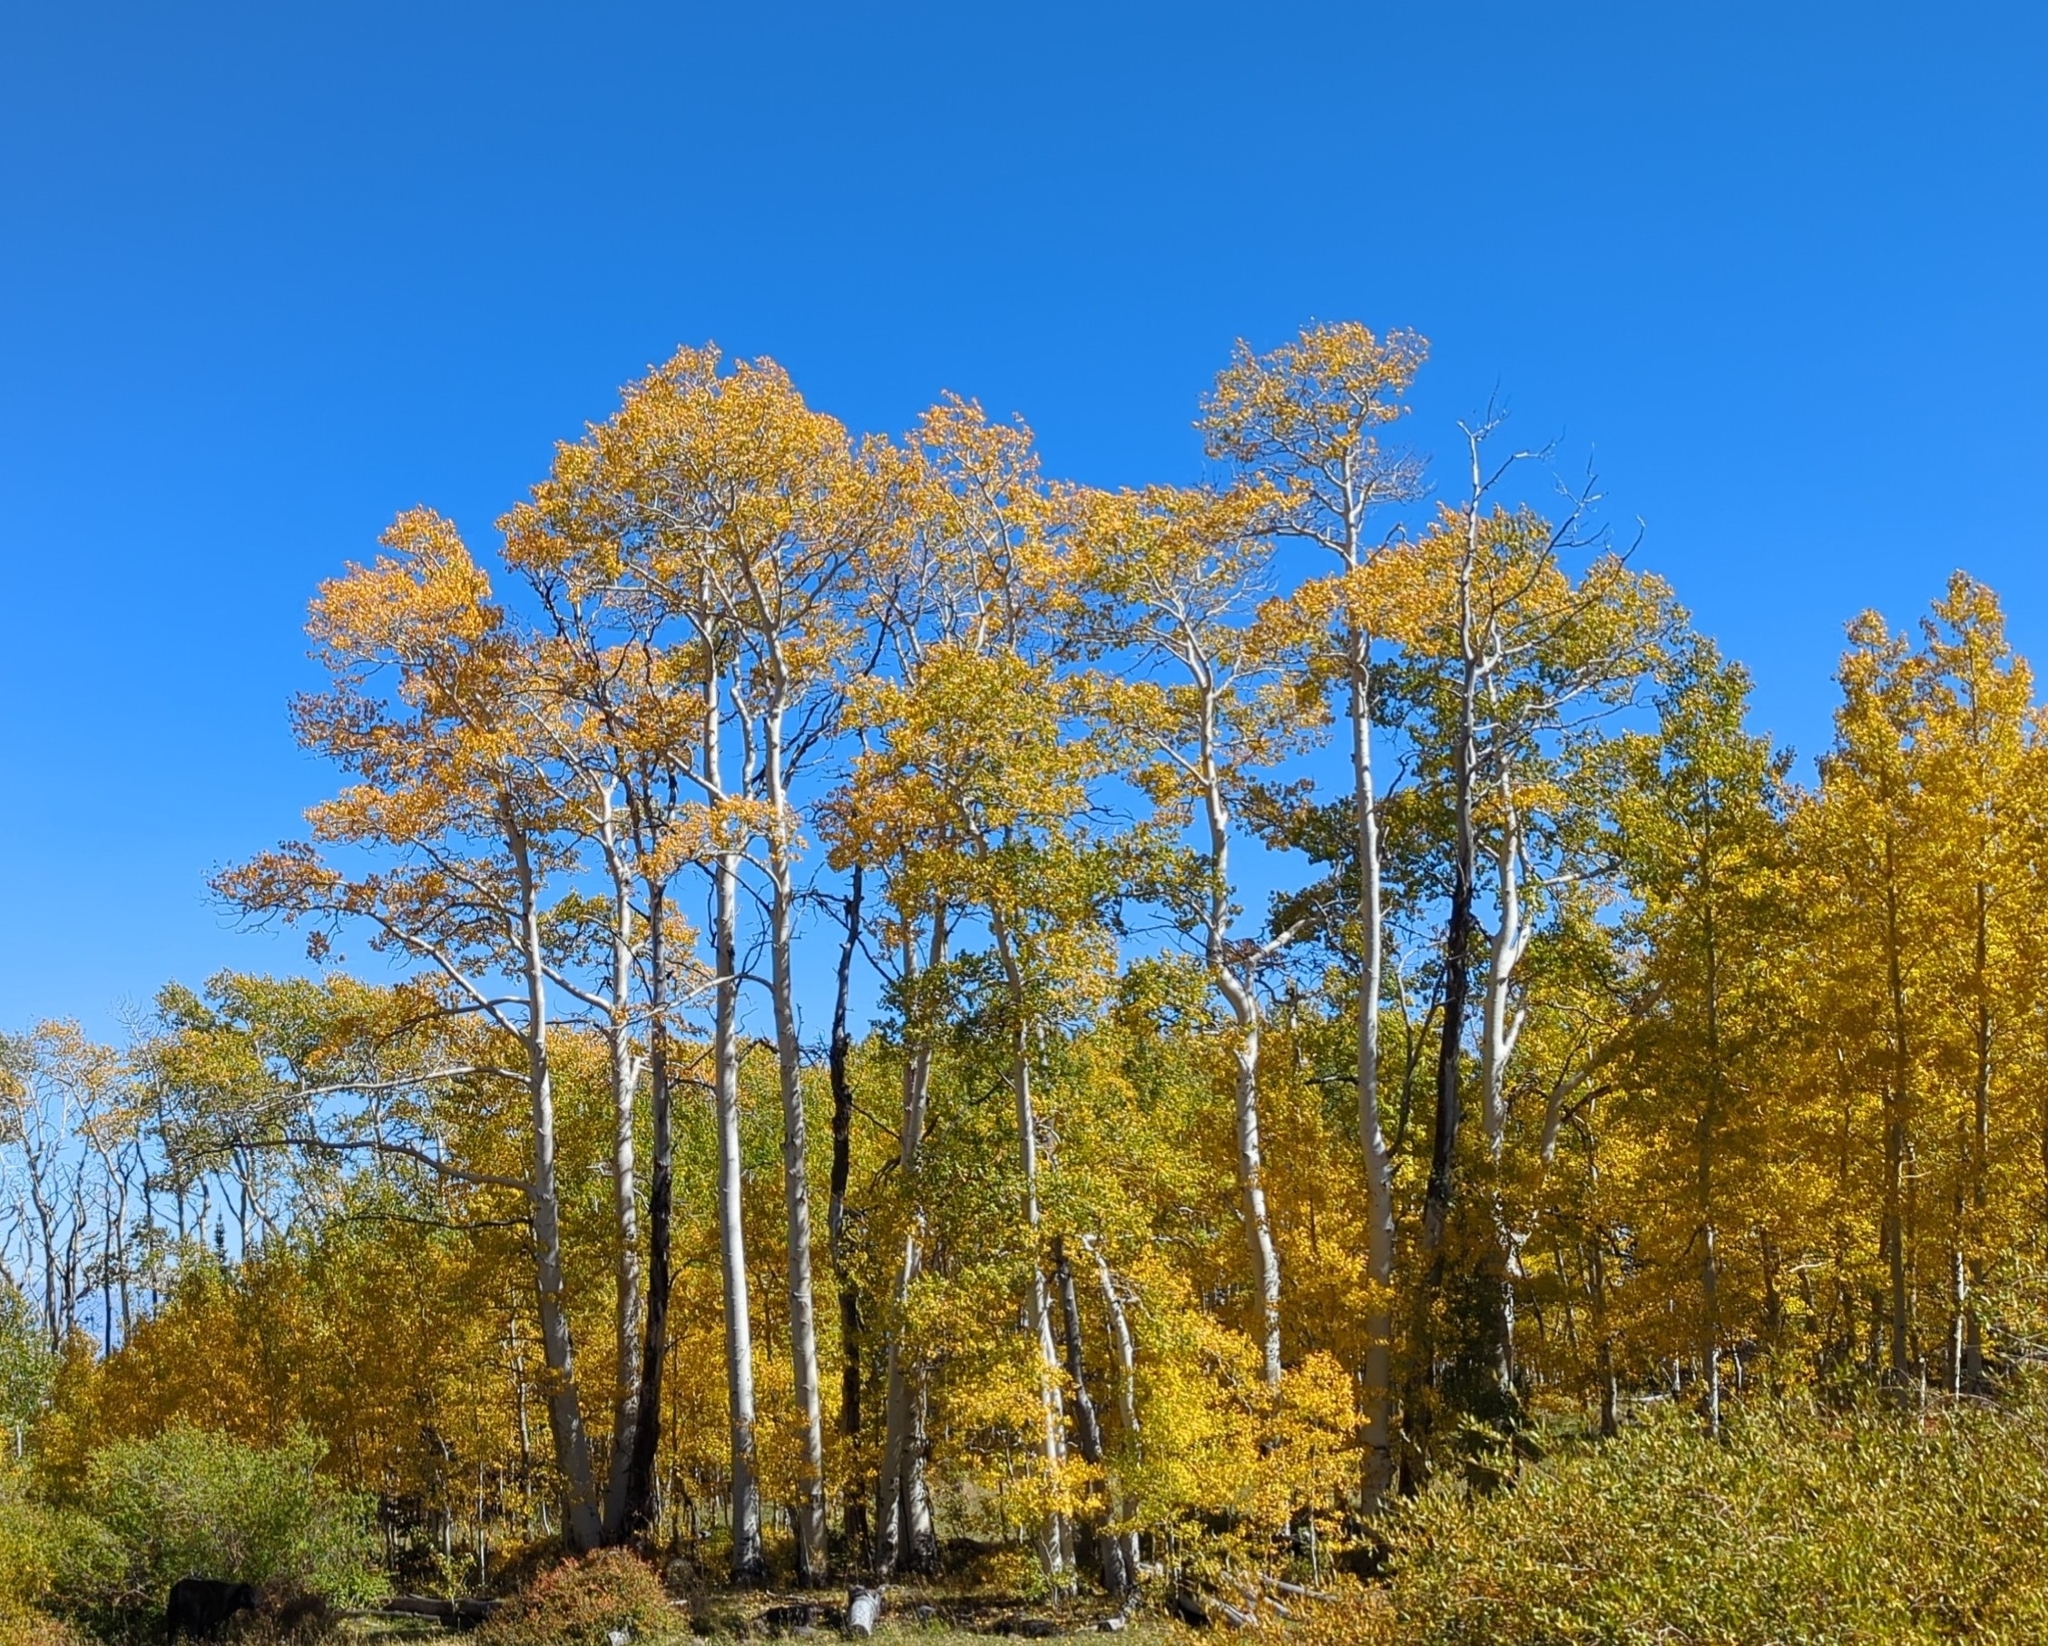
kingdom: Plantae
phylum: Tracheophyta
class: Magnoliopsida
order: Malpighiales
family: Salicaceae
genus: Populus
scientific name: Populus tremuloides
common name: Quaking aspen
